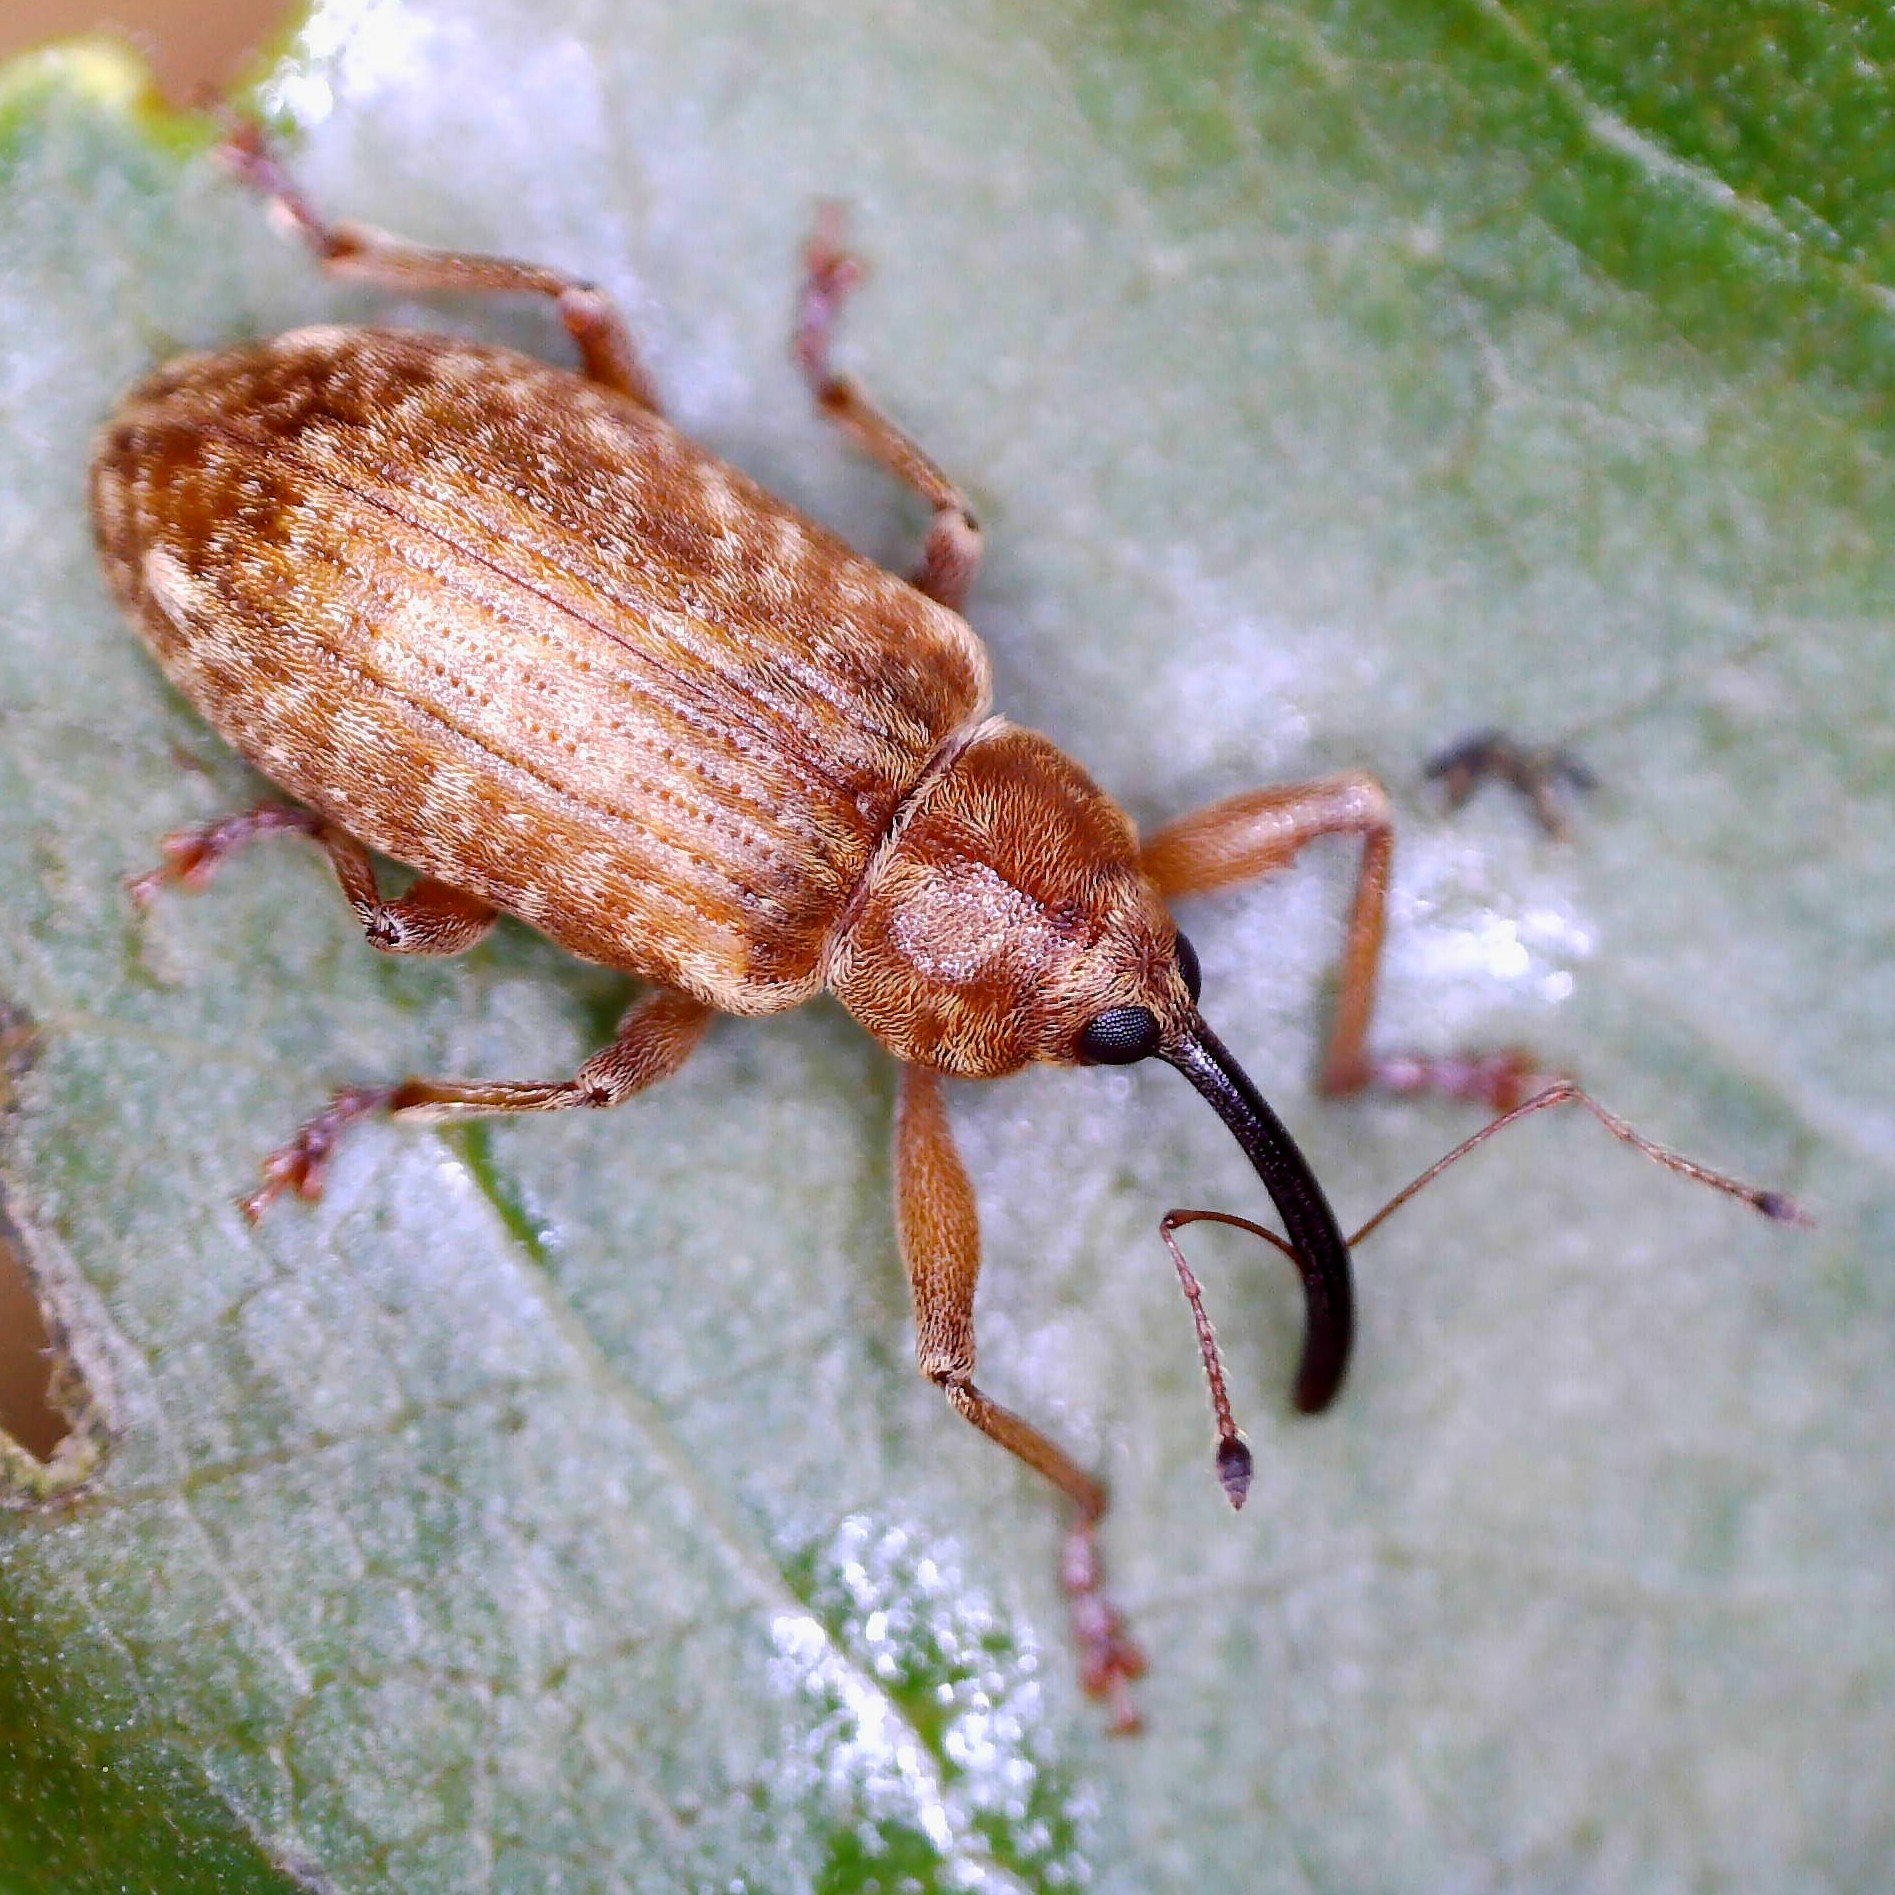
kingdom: Animalia
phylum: Arthropoda
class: Insecta
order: Coleoptera
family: Curculionidae
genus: Dorytomus
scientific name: Dorytomus longimanus
